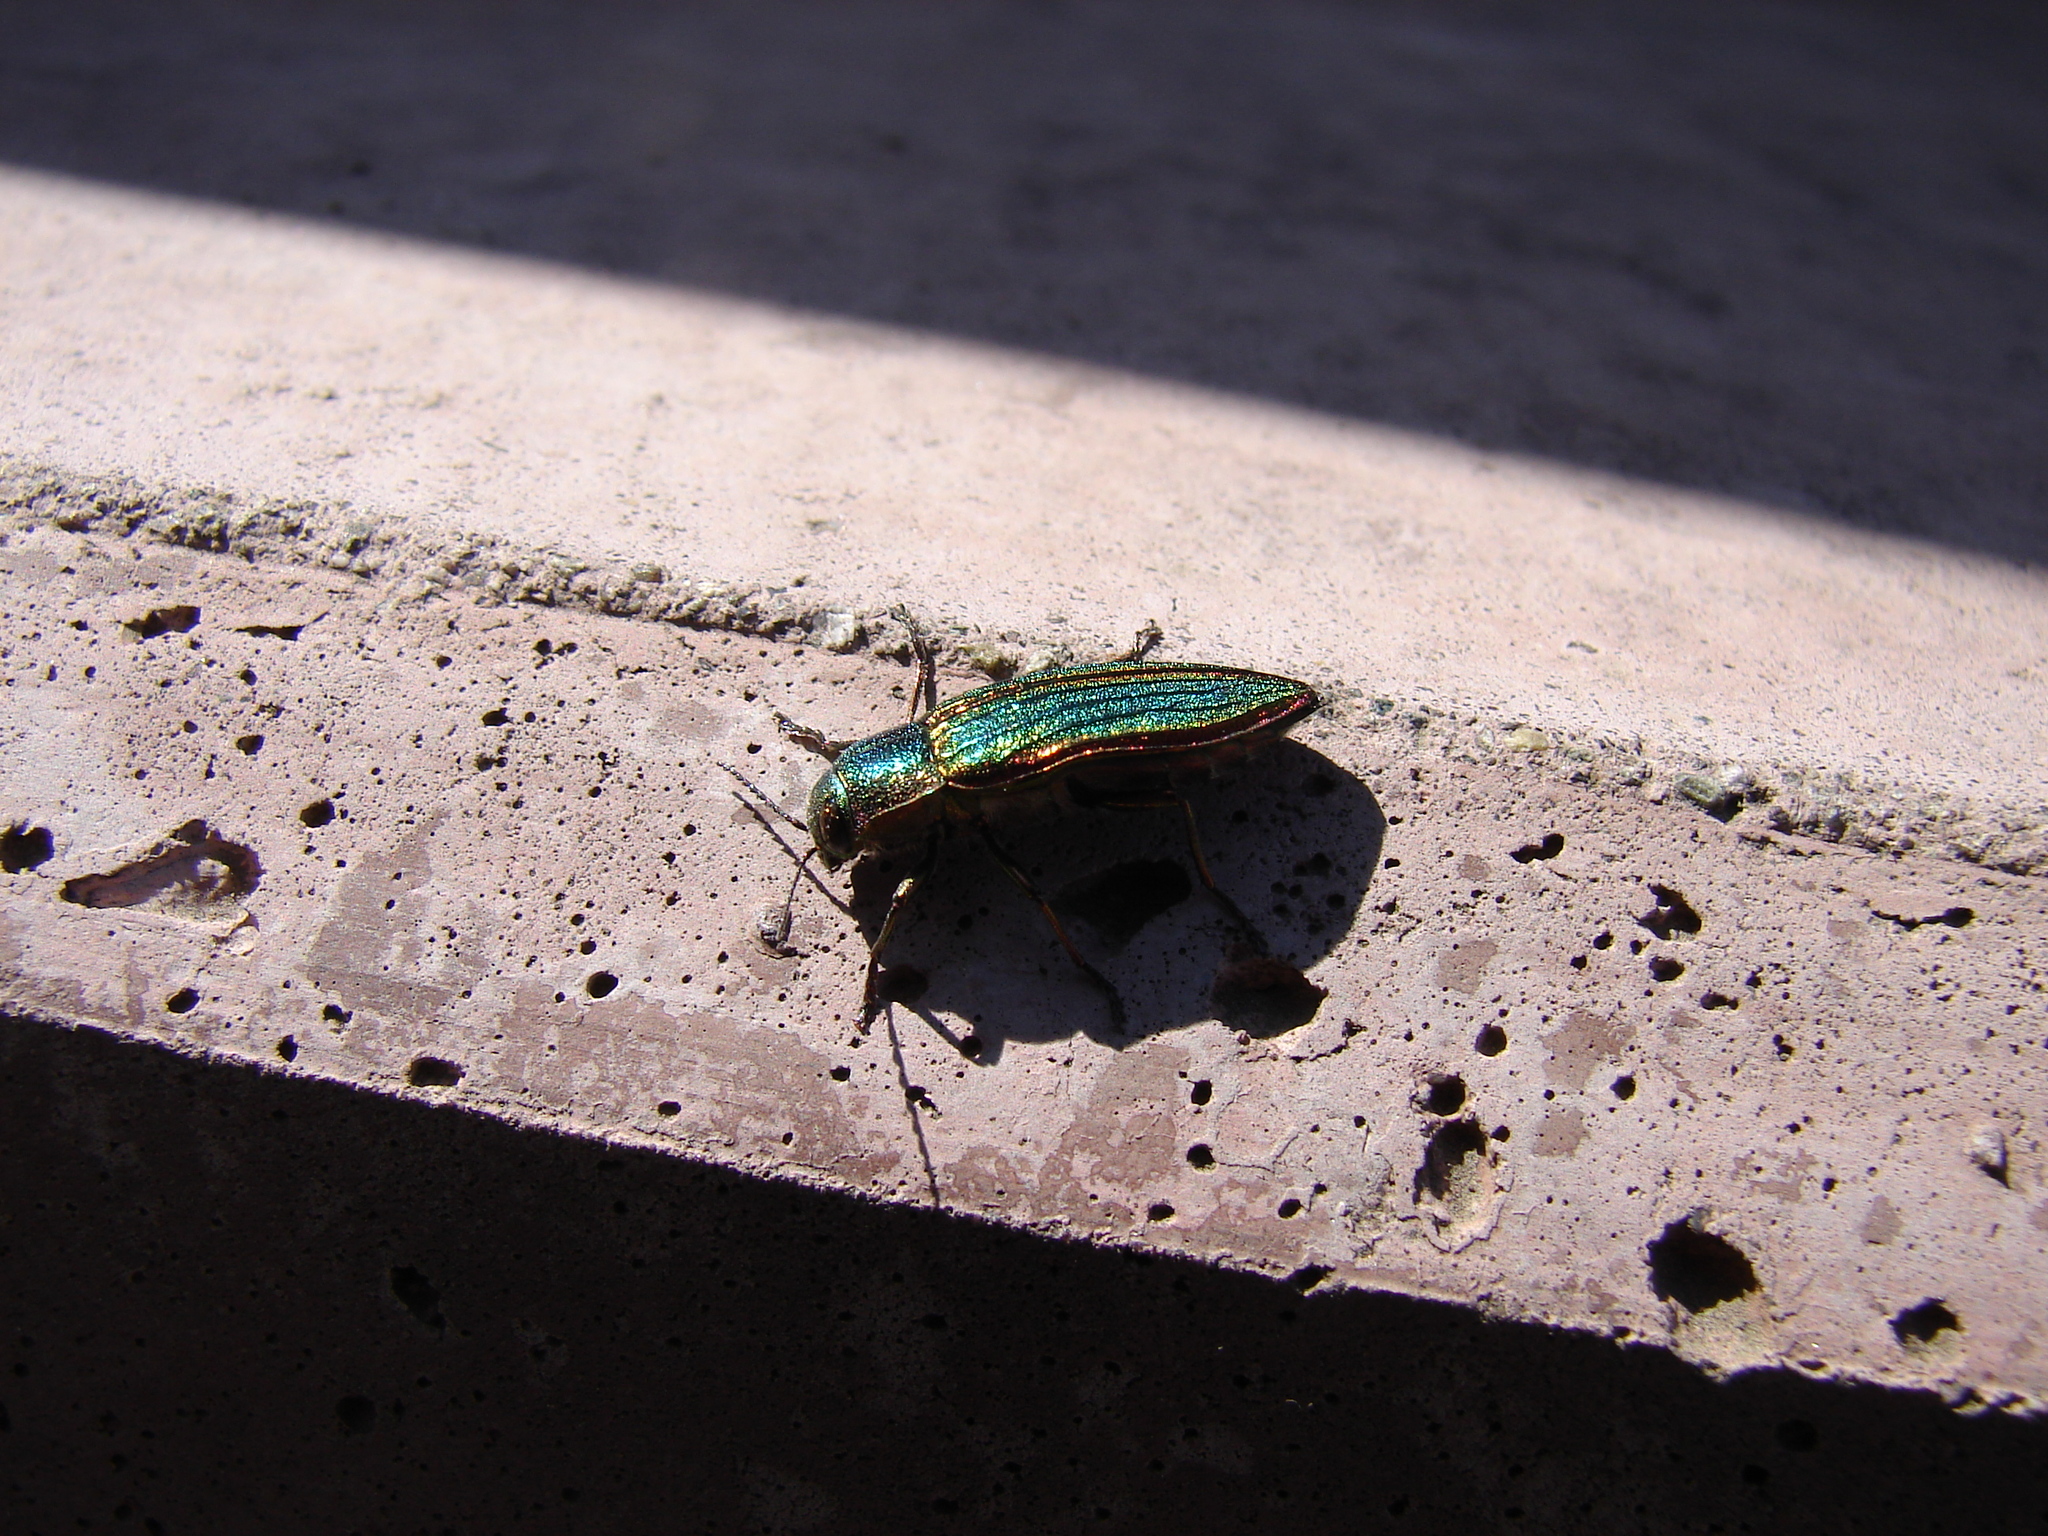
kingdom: Animalia
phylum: Arthropoda
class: Insecta
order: Coleoptera
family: Buprestidae
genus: Buprestis
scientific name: Buprestis aurulenta
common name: Golden buprestid
